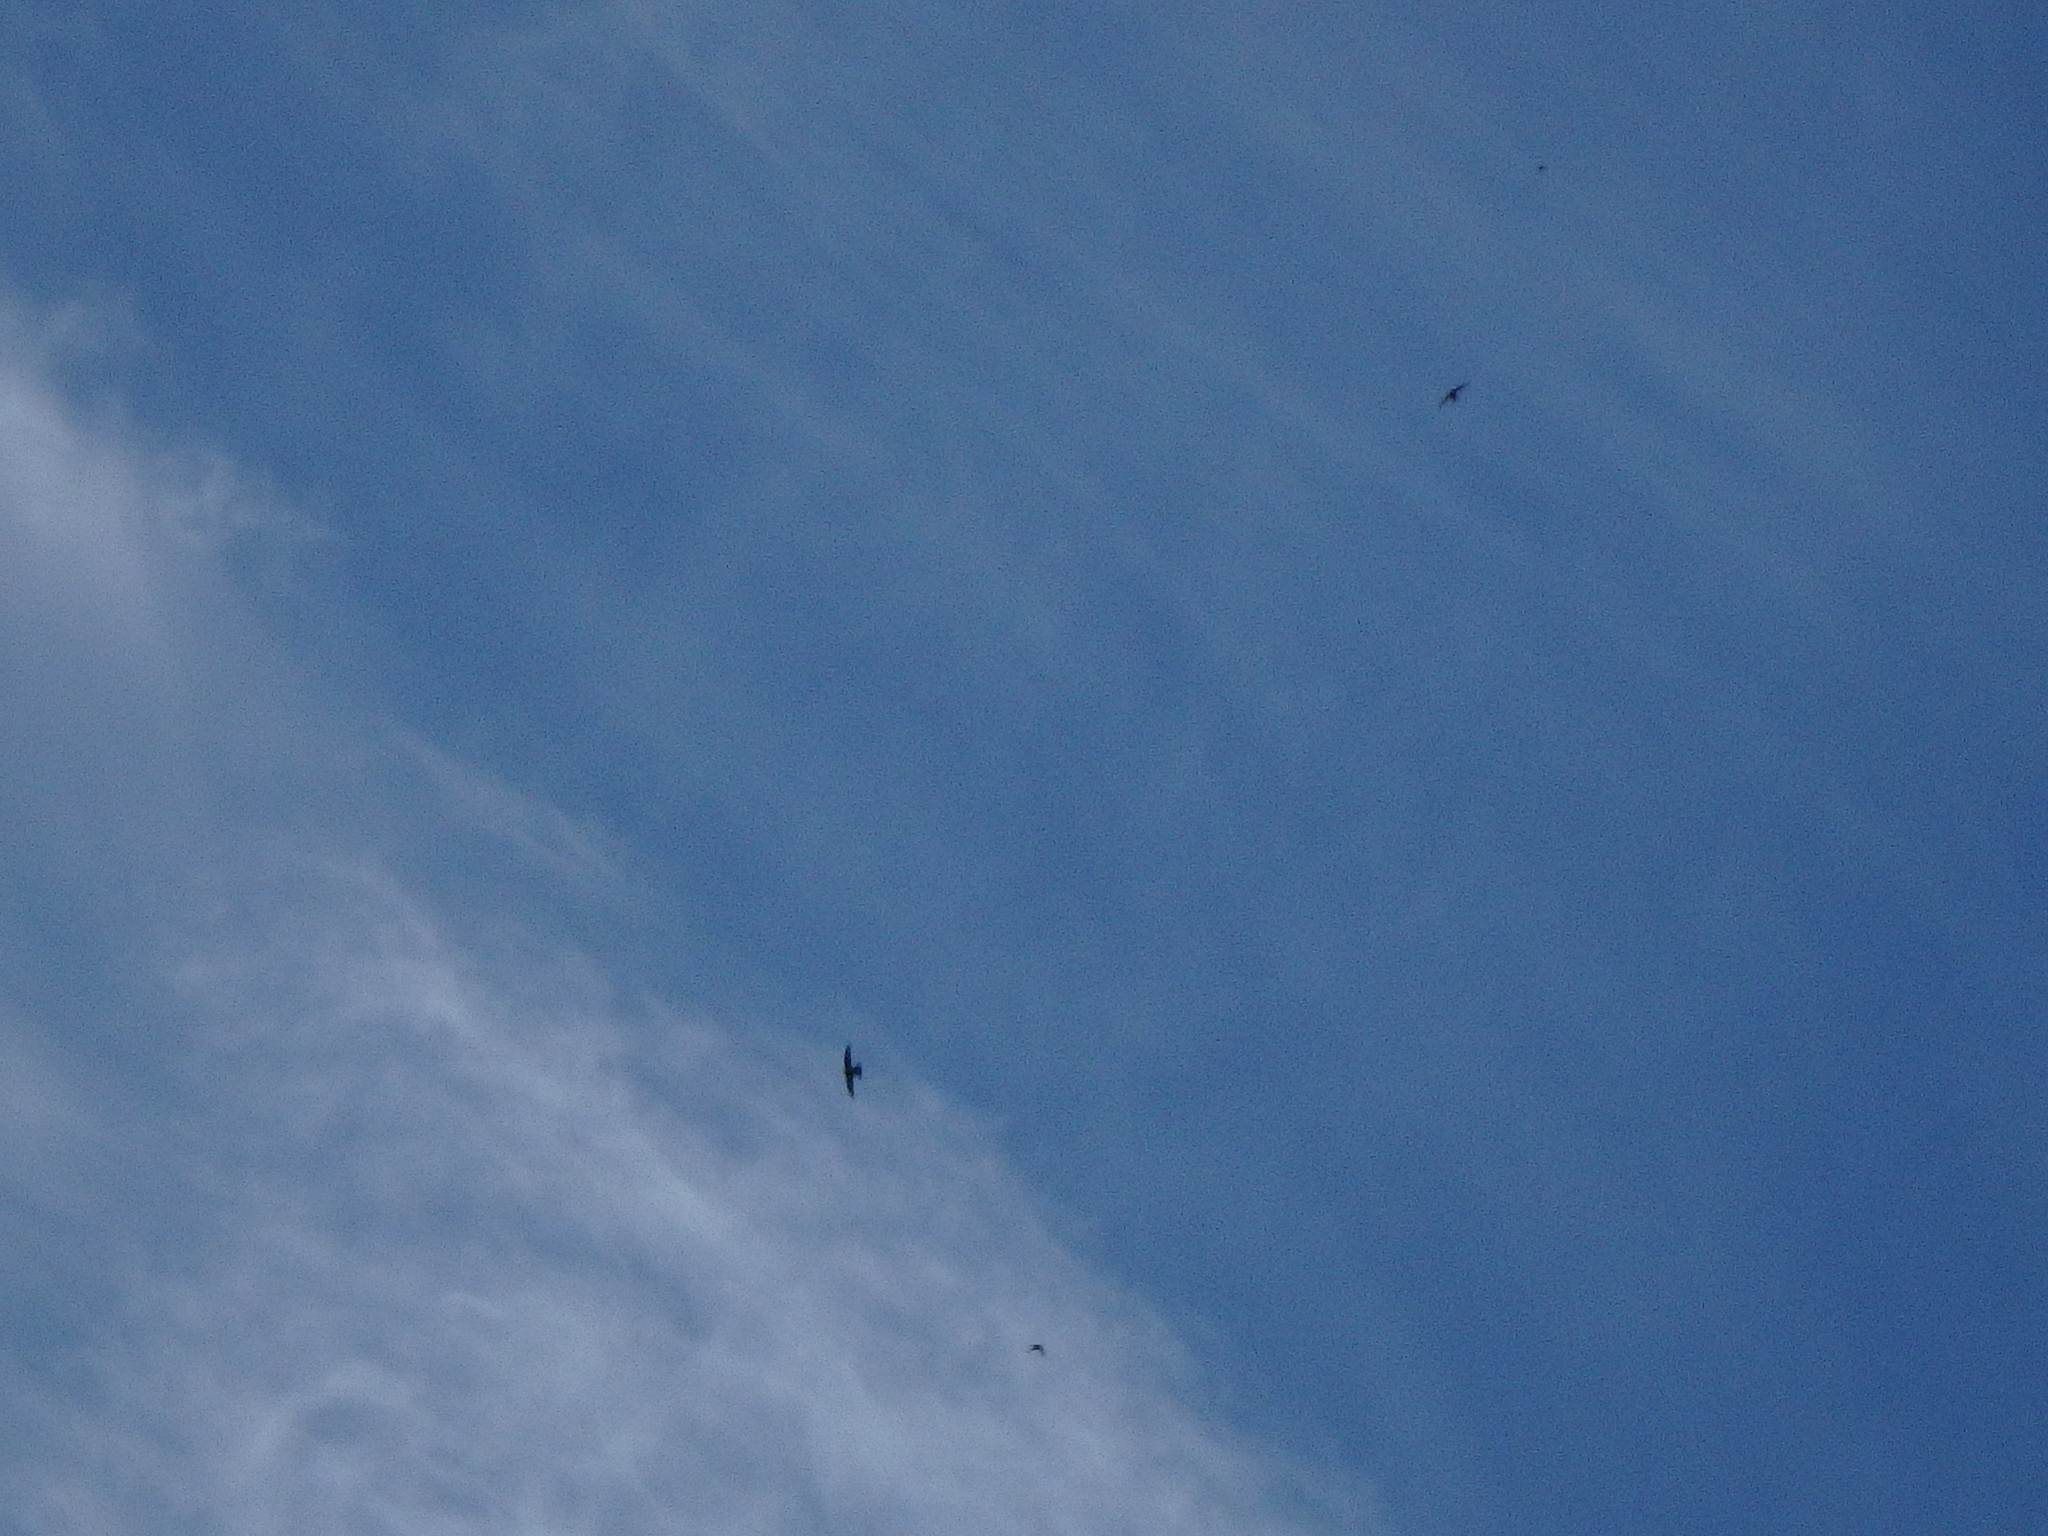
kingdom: Animalia
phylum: Chordata
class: Aves
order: Apodiformes
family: Apodidae
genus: Apus
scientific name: Apus apus
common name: Common swift
